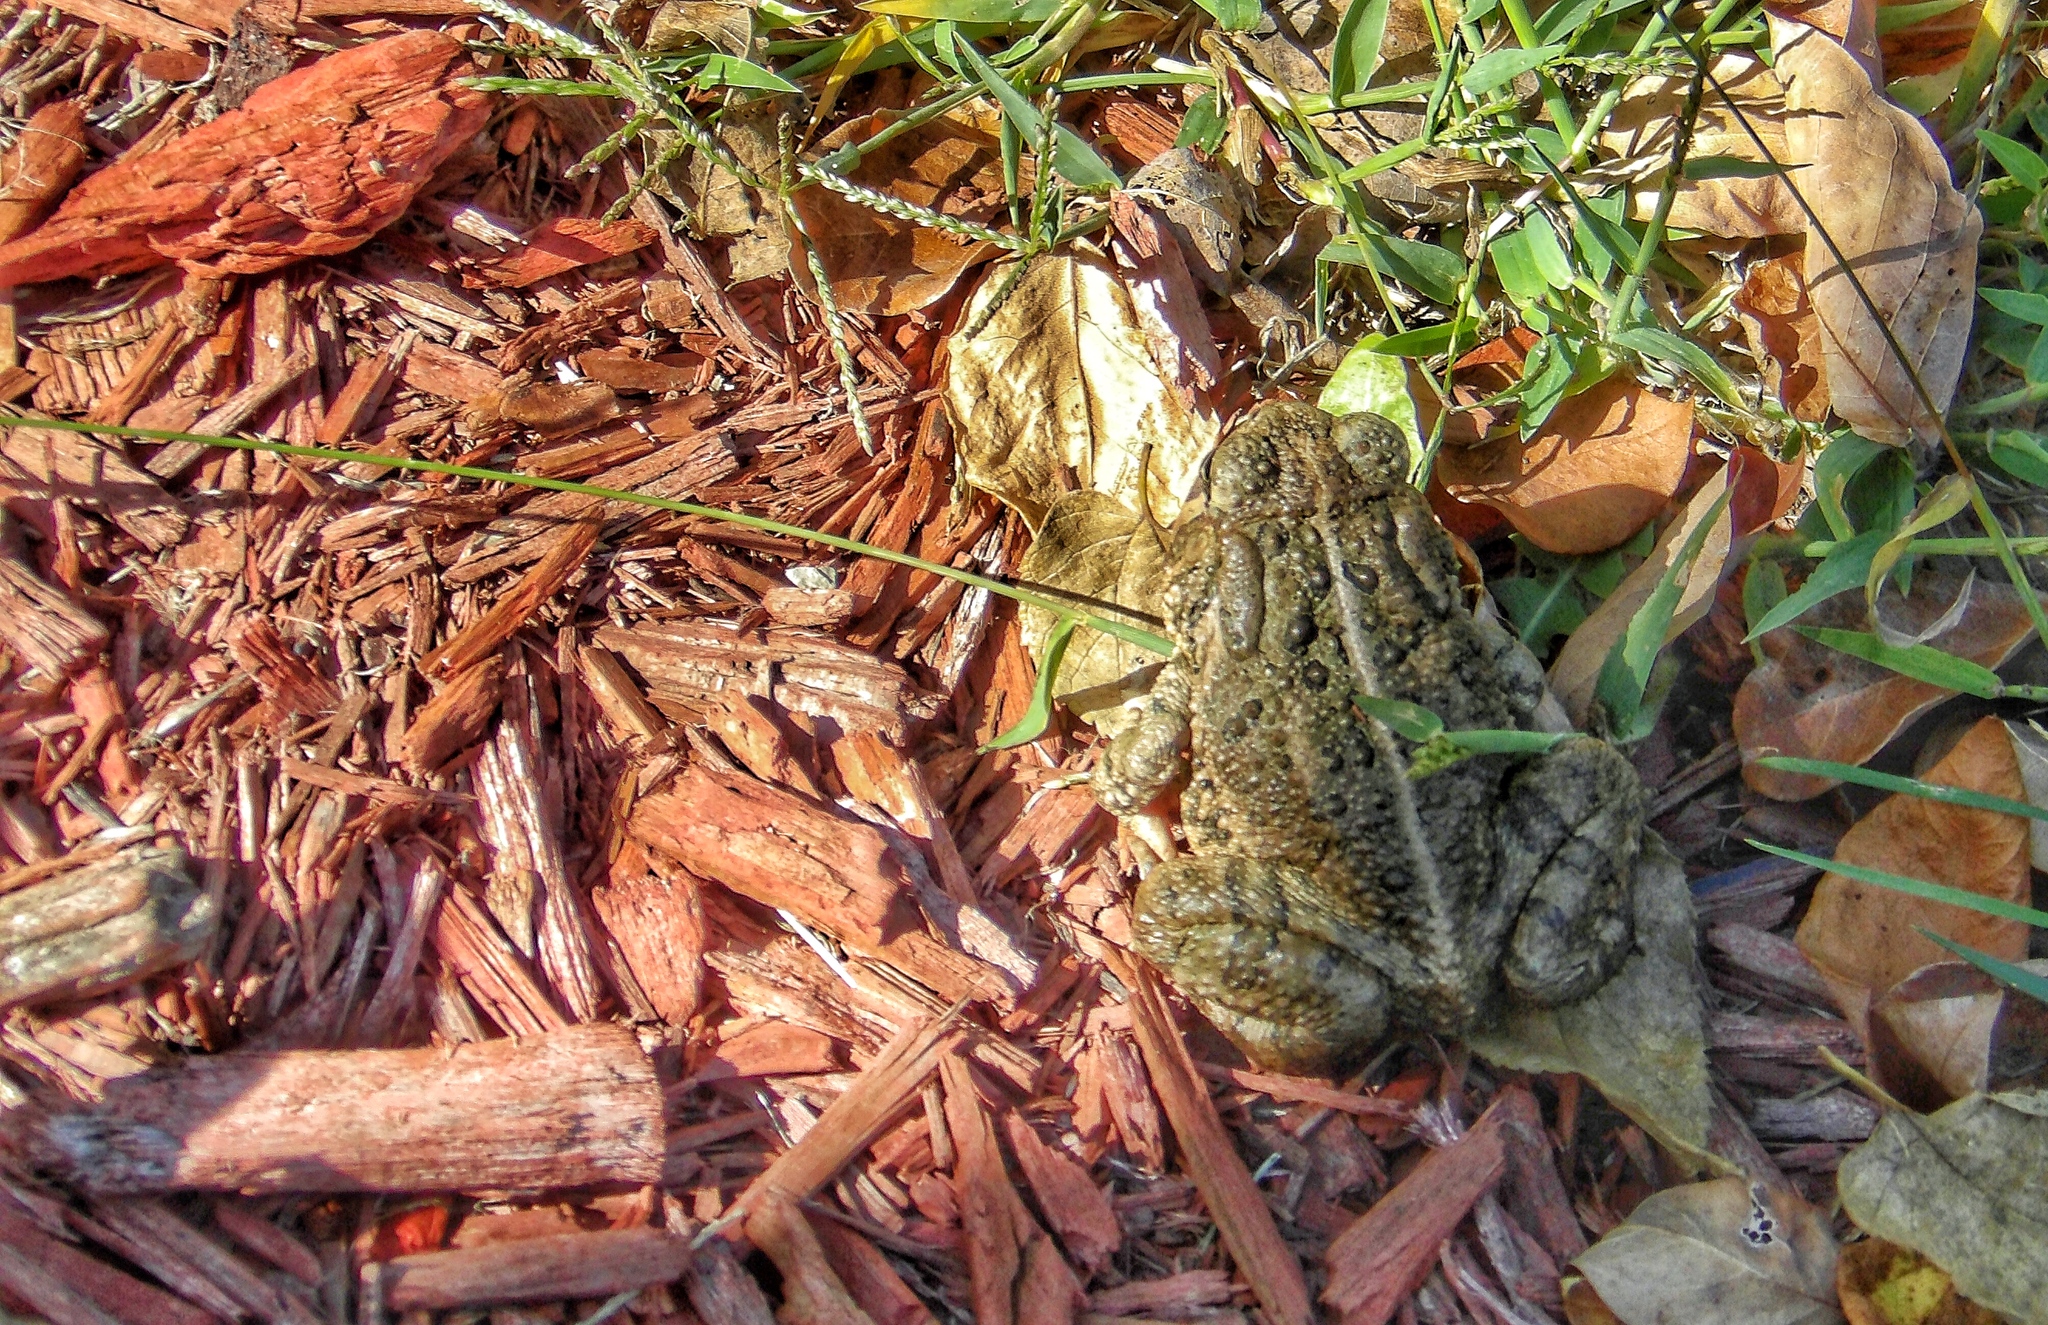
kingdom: Animalia
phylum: Chordata
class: Amphibia
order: Anura
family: Bufonidae
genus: Anaxyrus
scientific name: Anaxyrus woodhousii
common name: Woodhouse's toad
